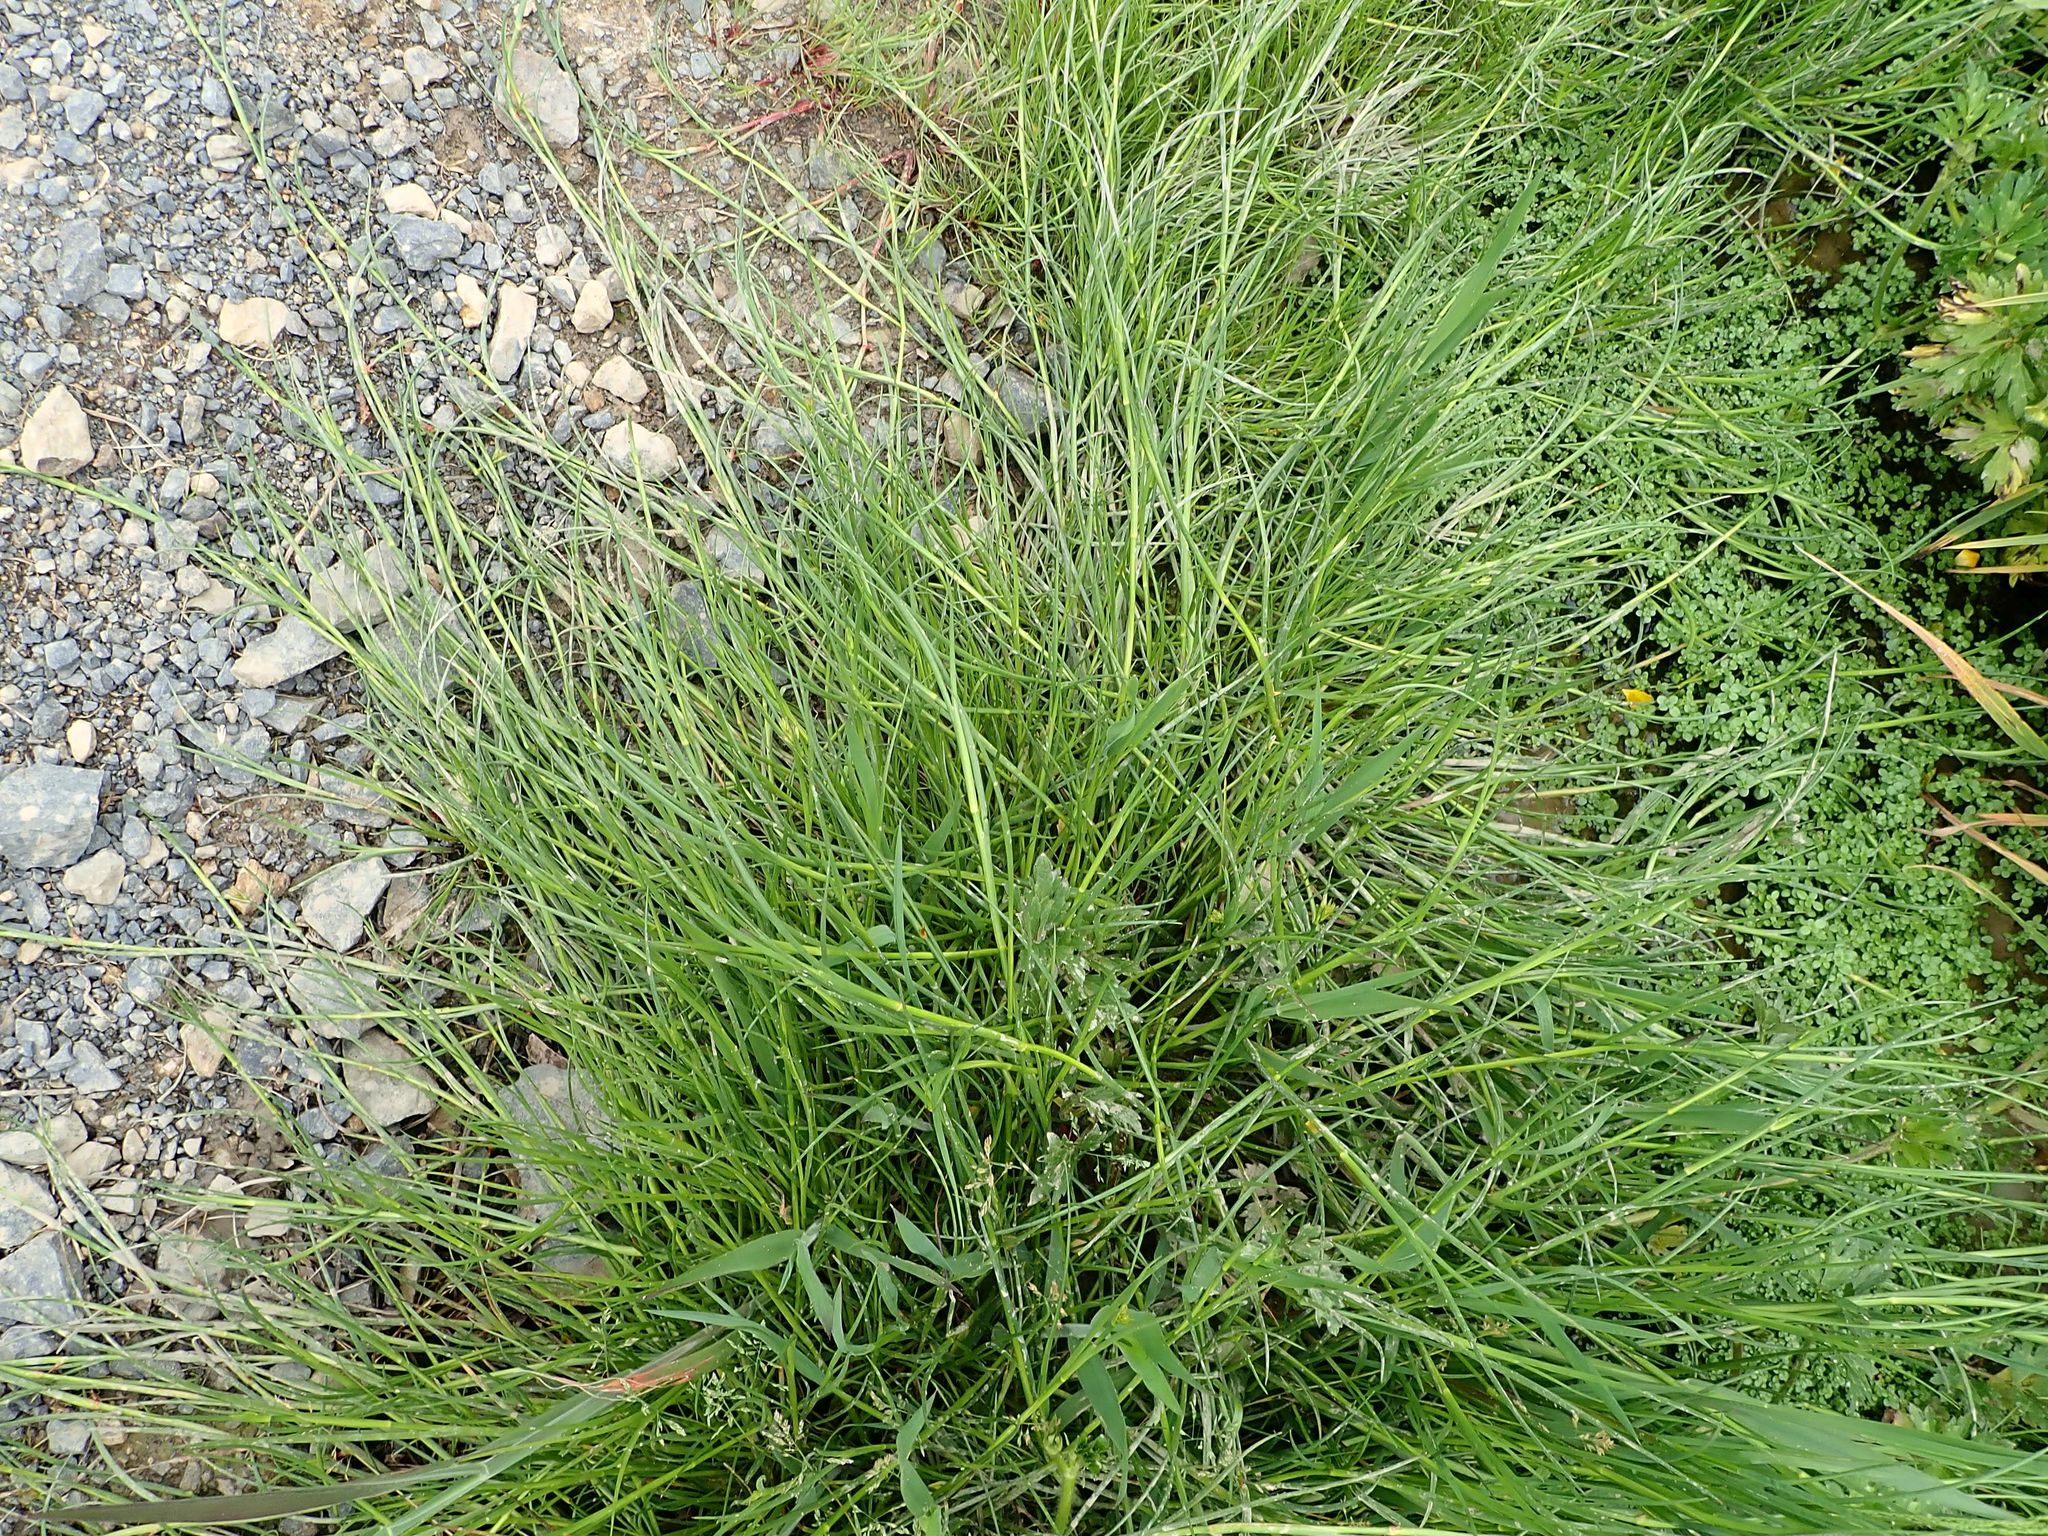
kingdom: Plantae
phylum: Tracheophyta
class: Liliopsida
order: Poales
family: Juncaceae
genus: Juncus
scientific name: Juncus articulatus
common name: Jointed rush
